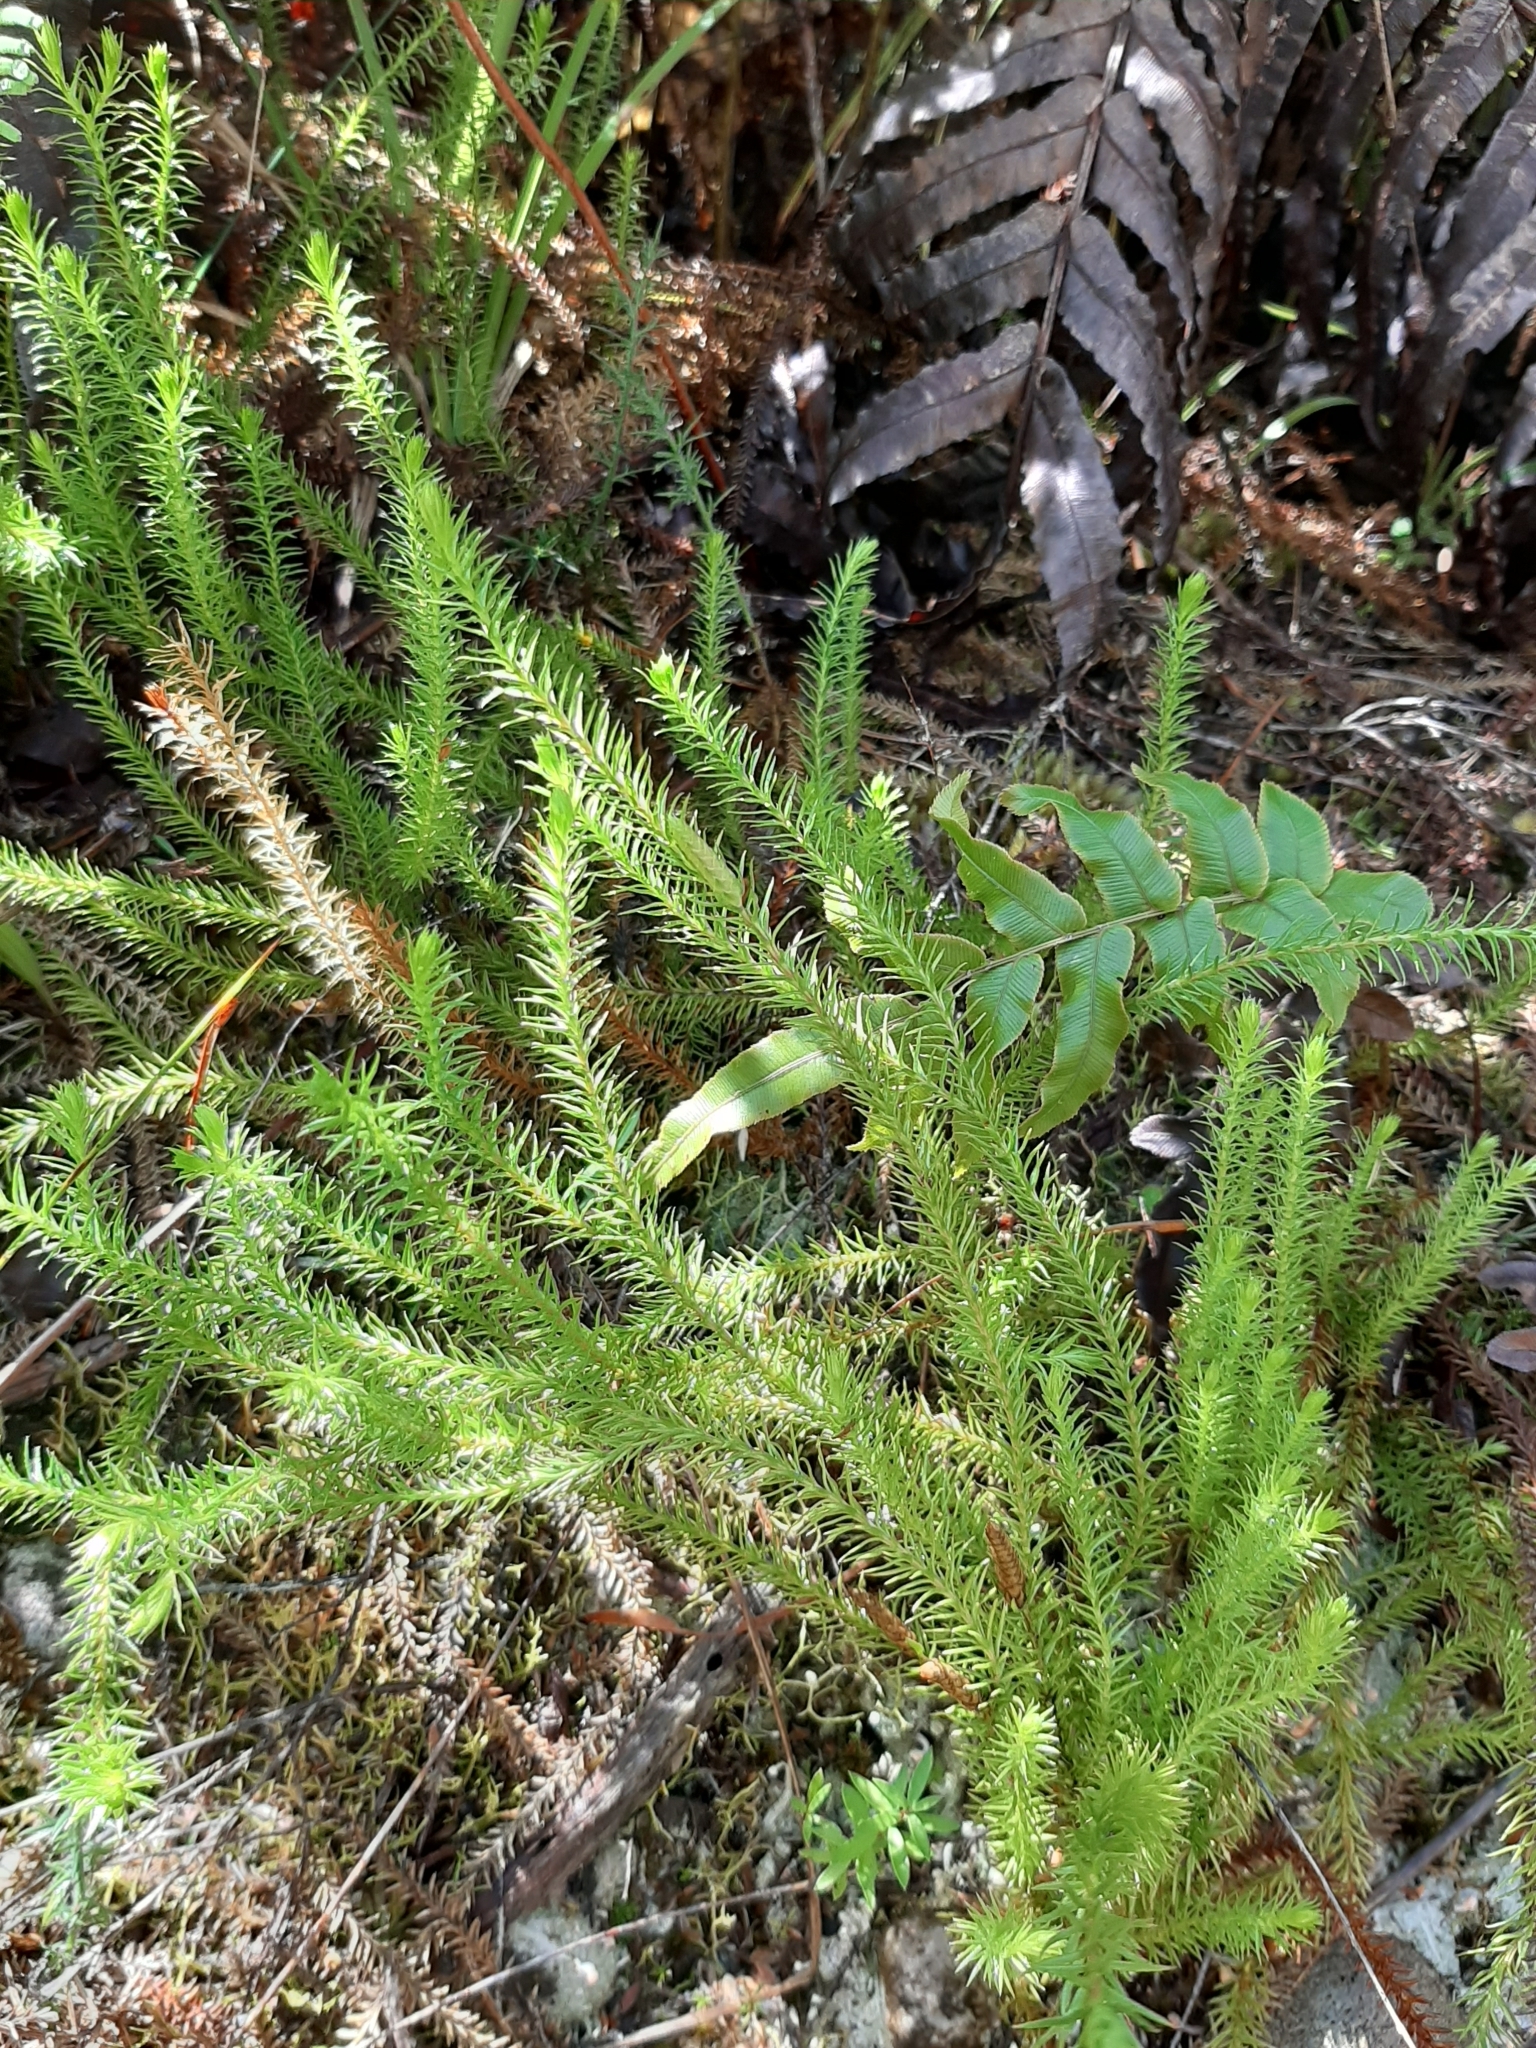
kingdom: Plantae
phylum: Tracheophyta
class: Lycopodiopsida
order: Lycopodiales
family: Lycopodiaceae
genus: Lateristachys
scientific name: Lateristachys lateralis
